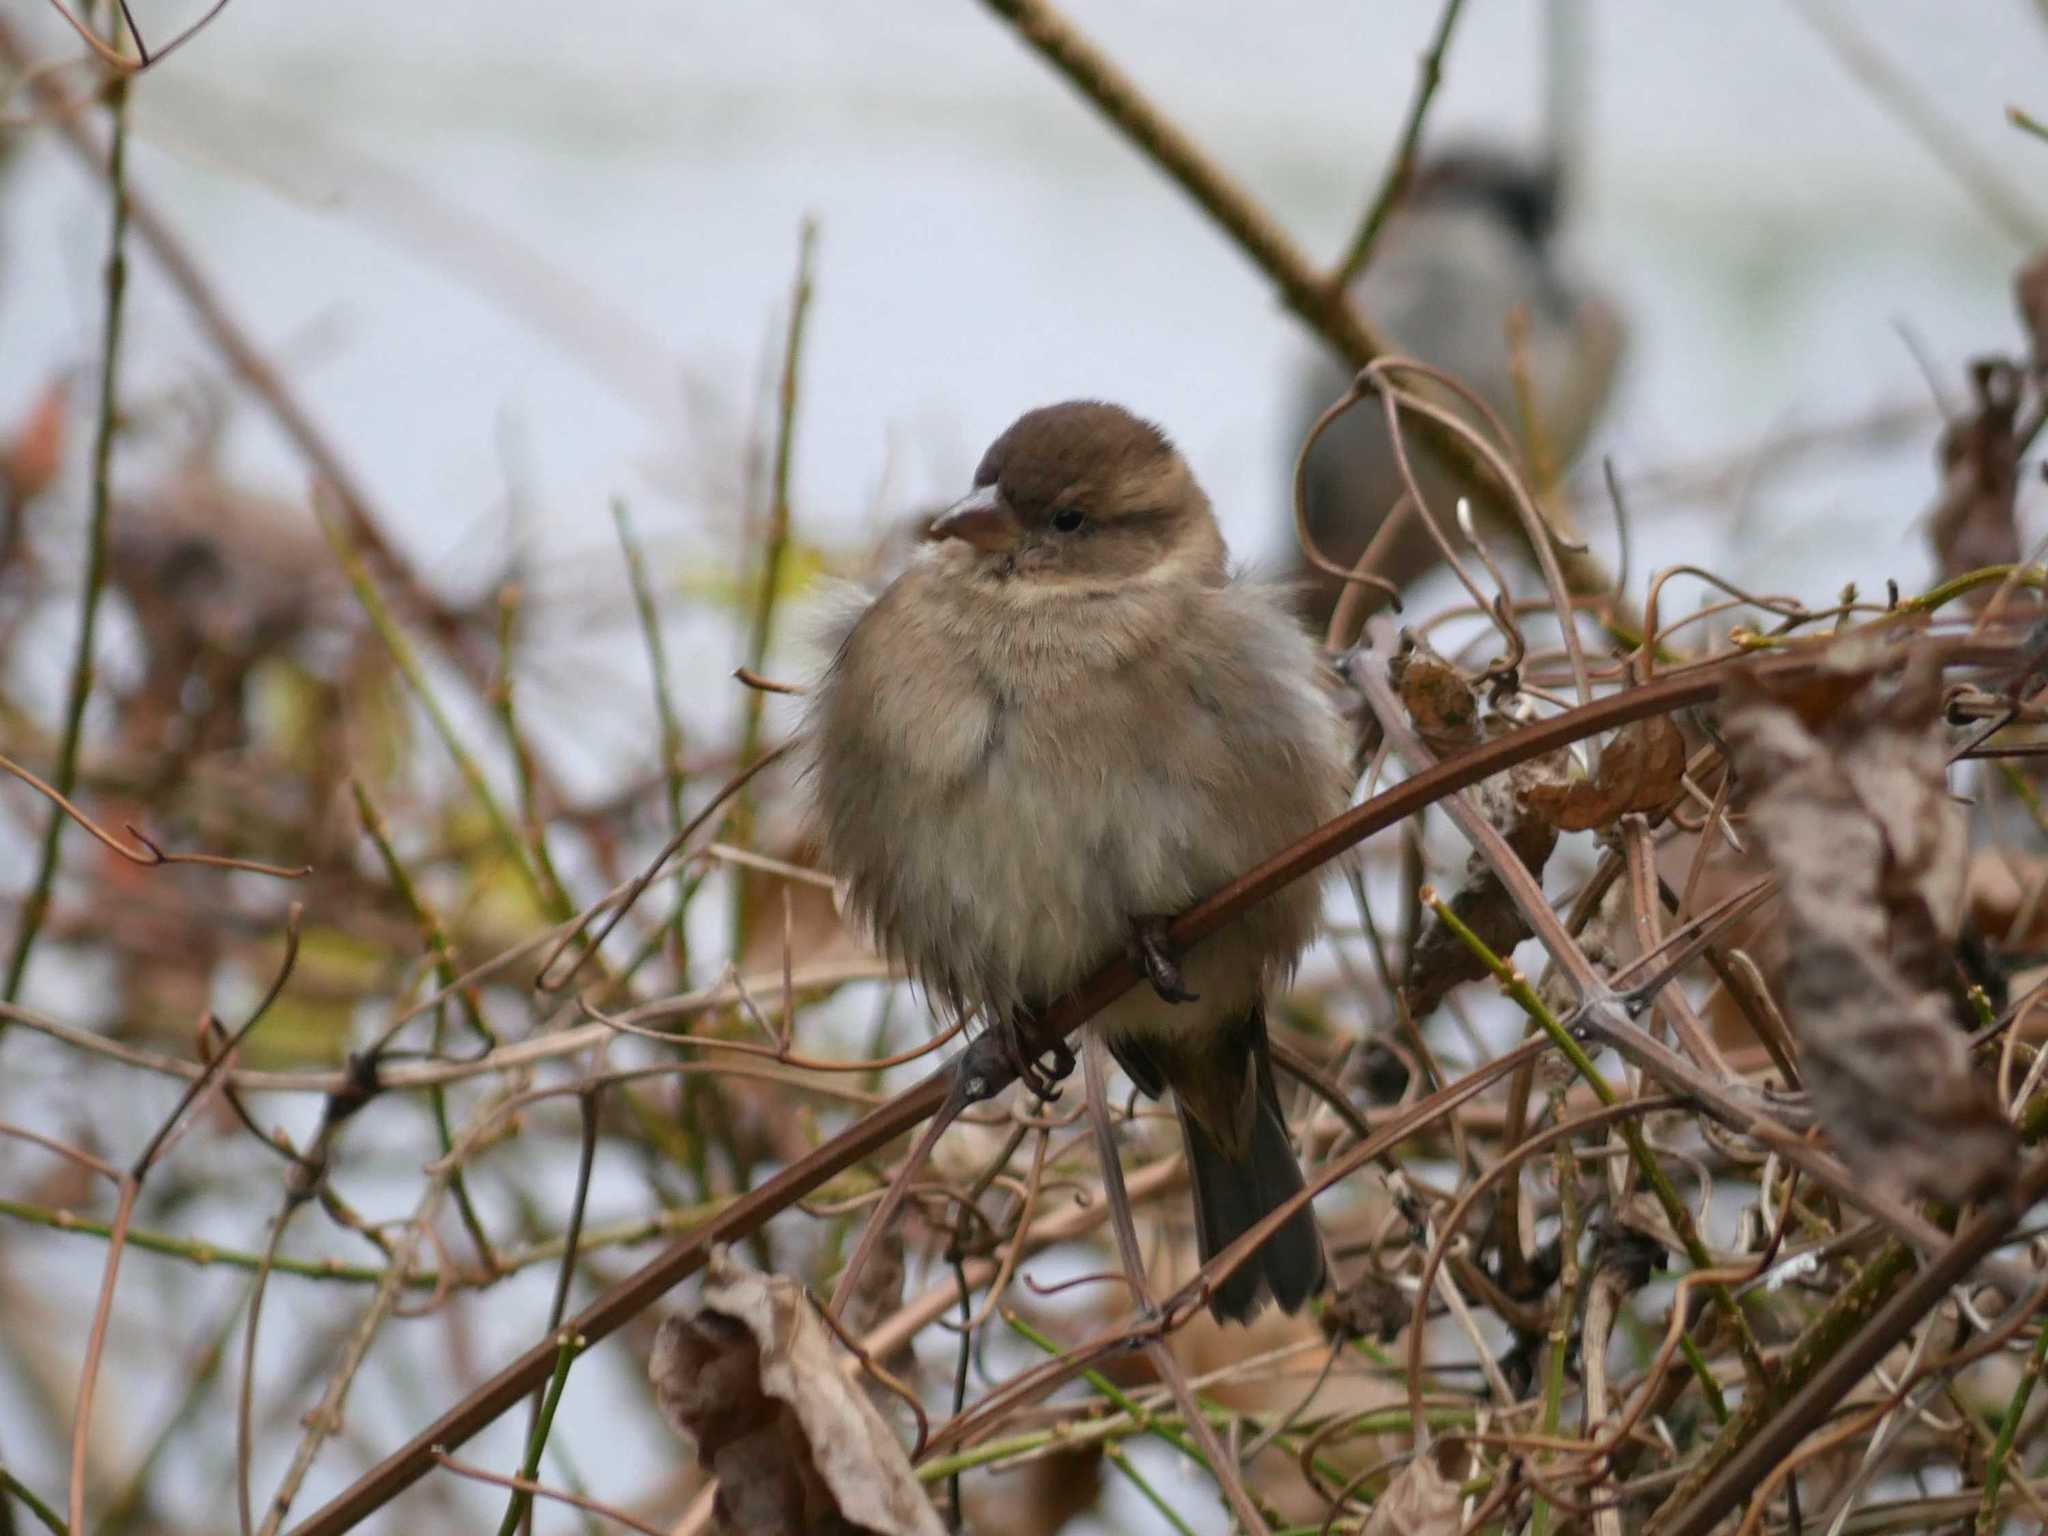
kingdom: Animalia
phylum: Chordata
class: Aves
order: Passeriformes
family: Passeridae
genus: Passer
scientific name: Passer domesticus
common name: House sparrow
